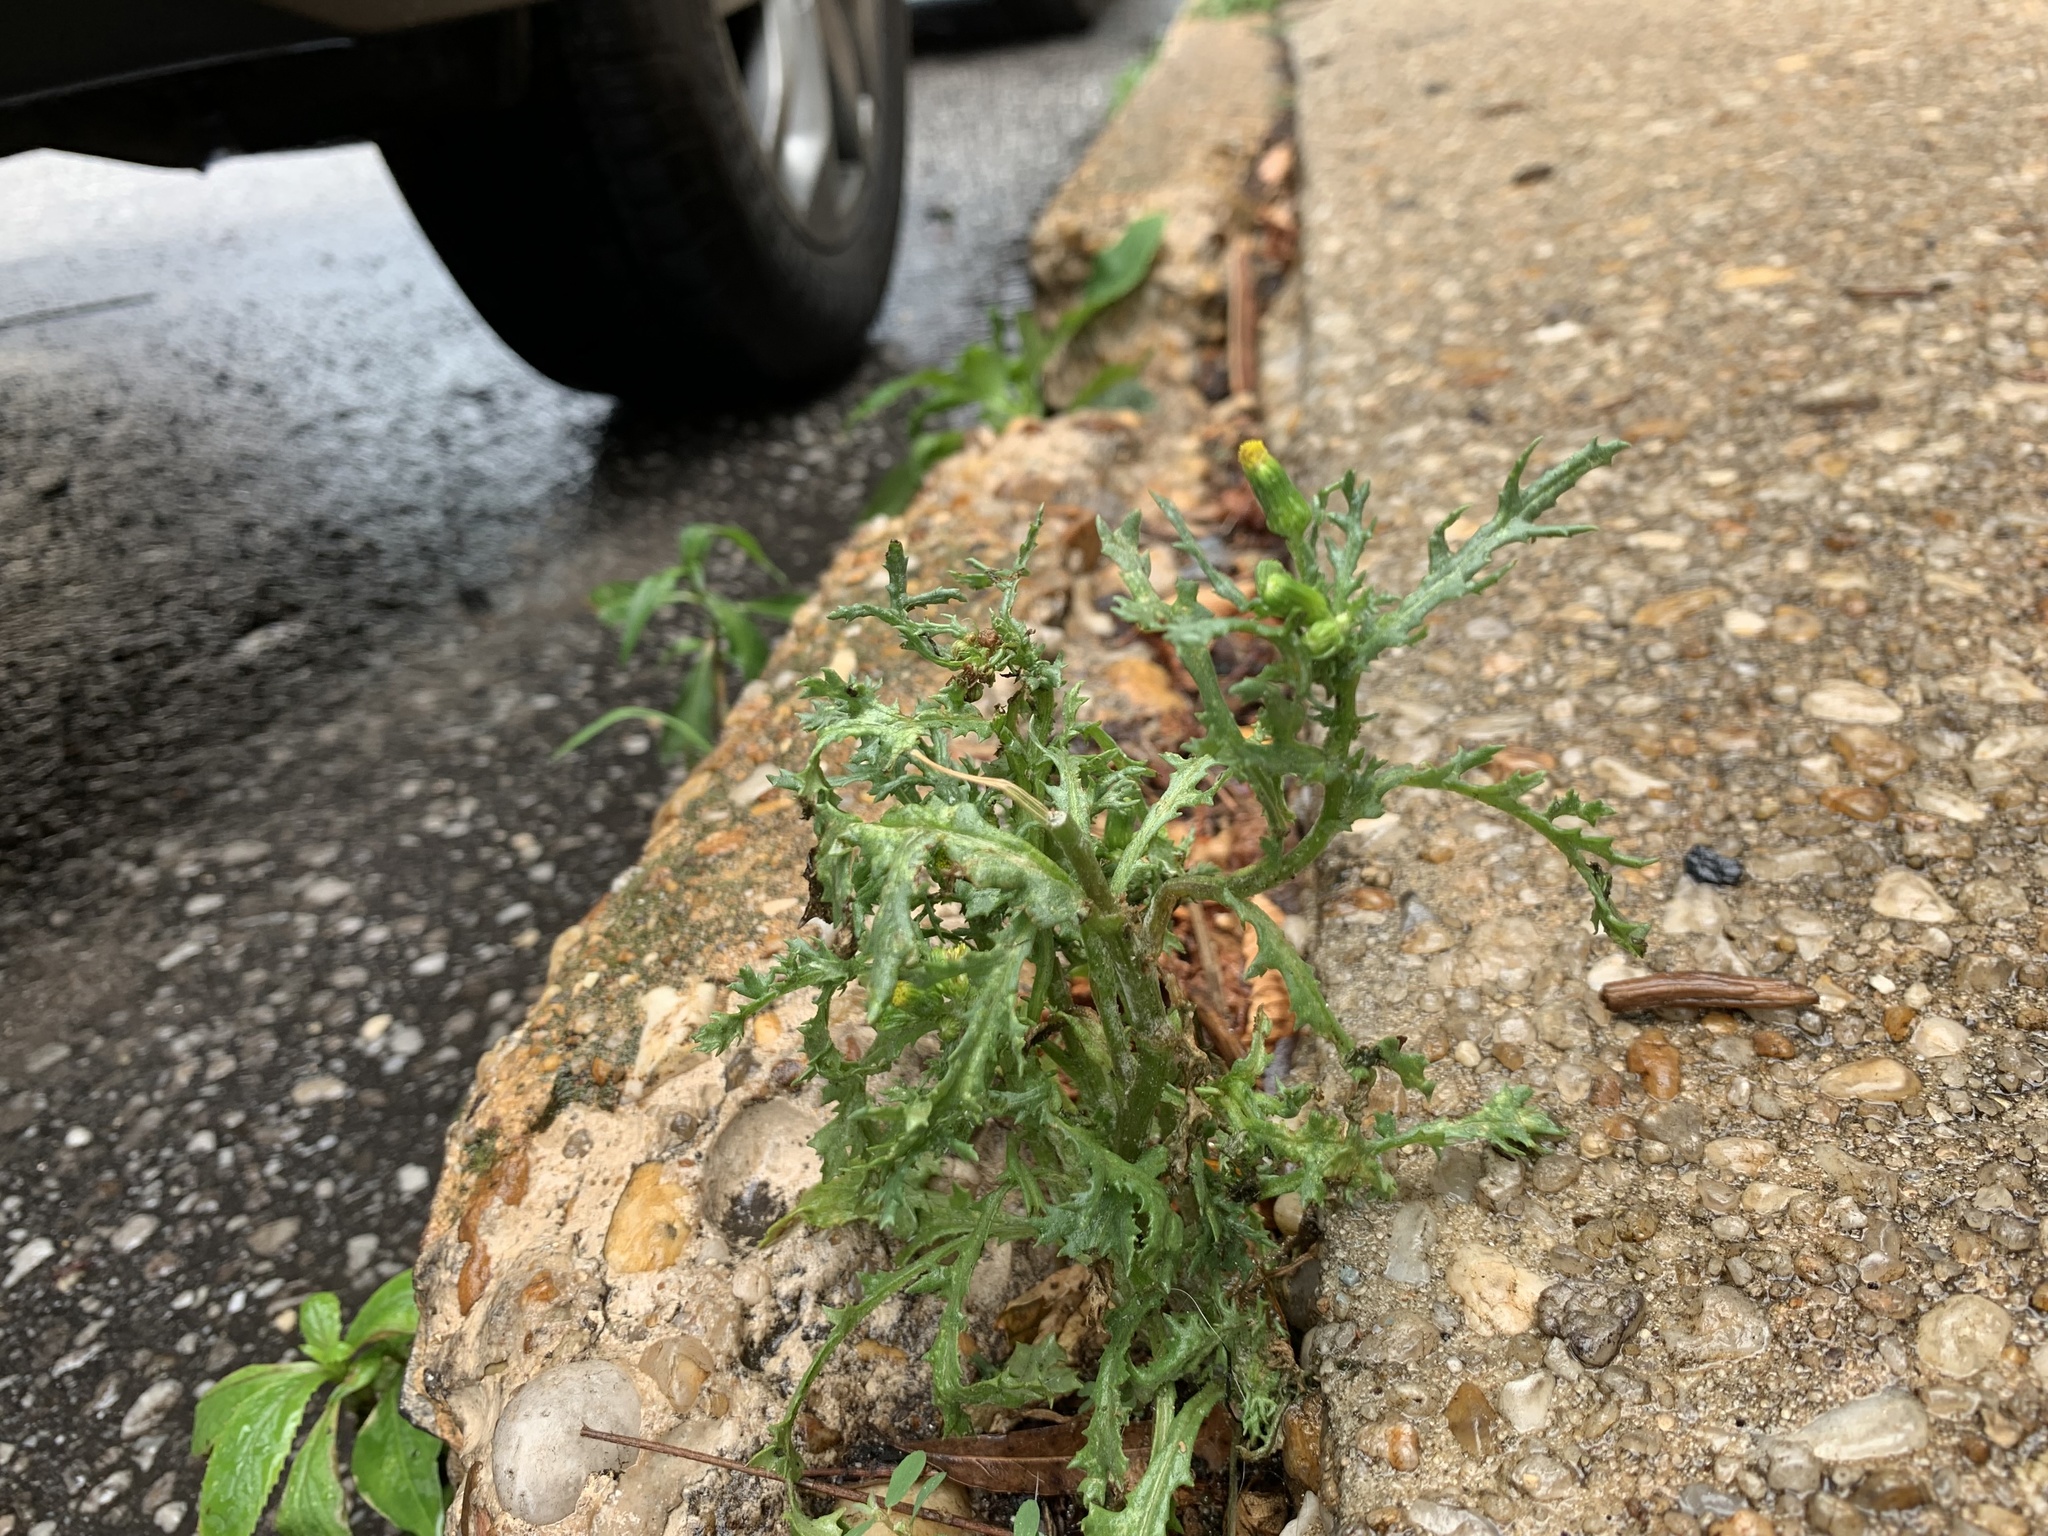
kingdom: Plantae
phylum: Tracheophyta
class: Magnoliopsida
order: Asterales
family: Asteraceae
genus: Senecio
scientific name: Senecio vulgaris
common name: Old-man-in-the-spring
